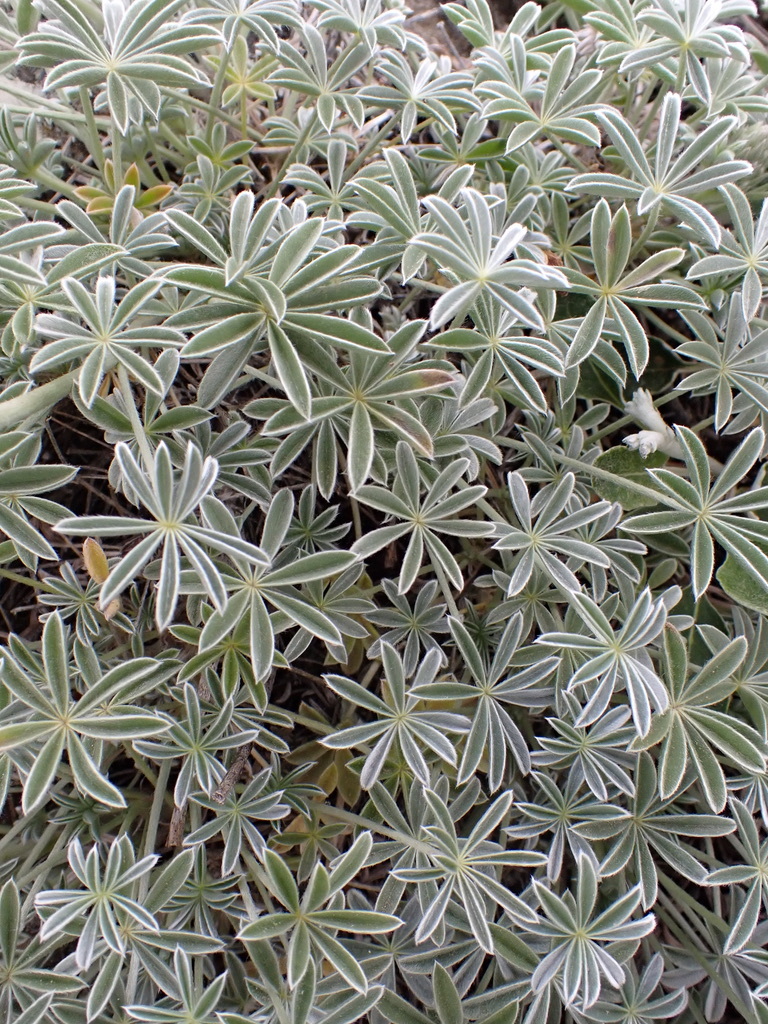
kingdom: Plantae
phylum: Tracheophyta
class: Magnoliopsida
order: Fabales
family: Fabaceae
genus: Lupinus
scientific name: Lupinus albifrons
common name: Foothill lupine
